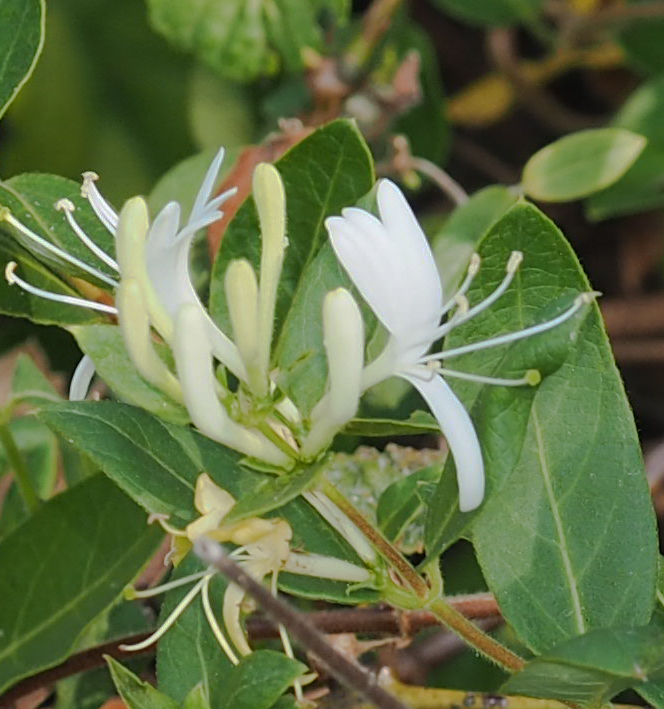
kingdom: Plantae
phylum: Tracheophyta
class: Magnoliopsida
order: Dipsacales
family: Caprifoliaceae
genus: Lonicera
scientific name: Lonicera japonica
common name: Japanese honeysuckle
